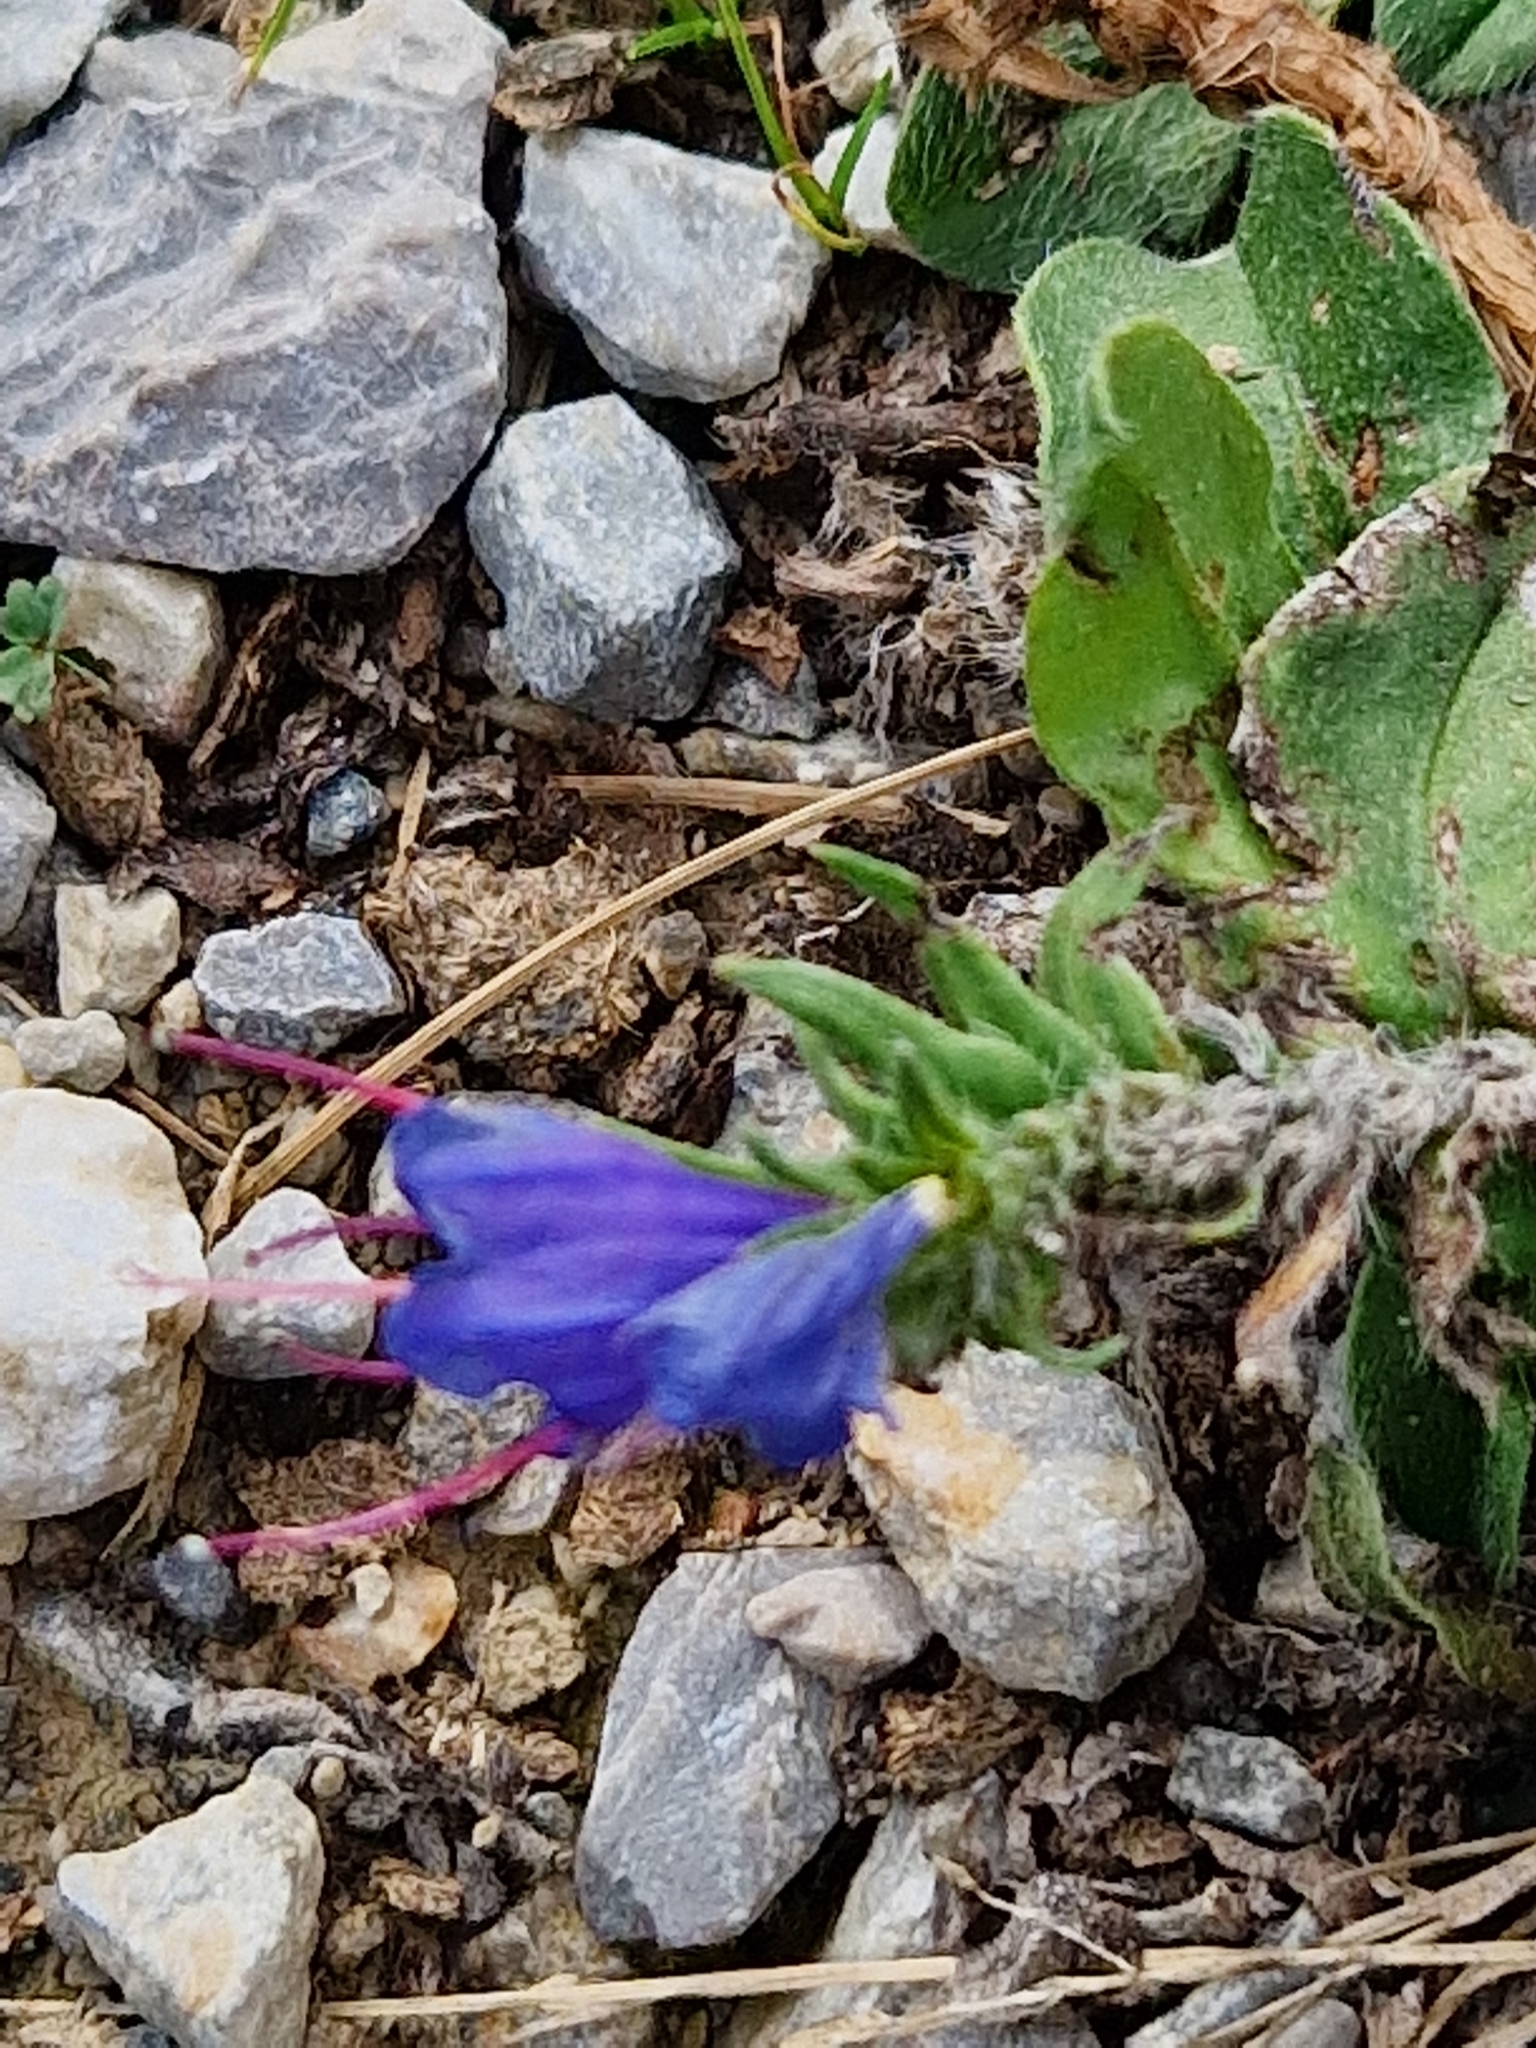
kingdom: Plantae
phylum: Tracheophyta
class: Magnoliopsida
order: Boraginales
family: Boraginaceae
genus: Echium
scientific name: Echium vulgare
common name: Common viper's bugloss
